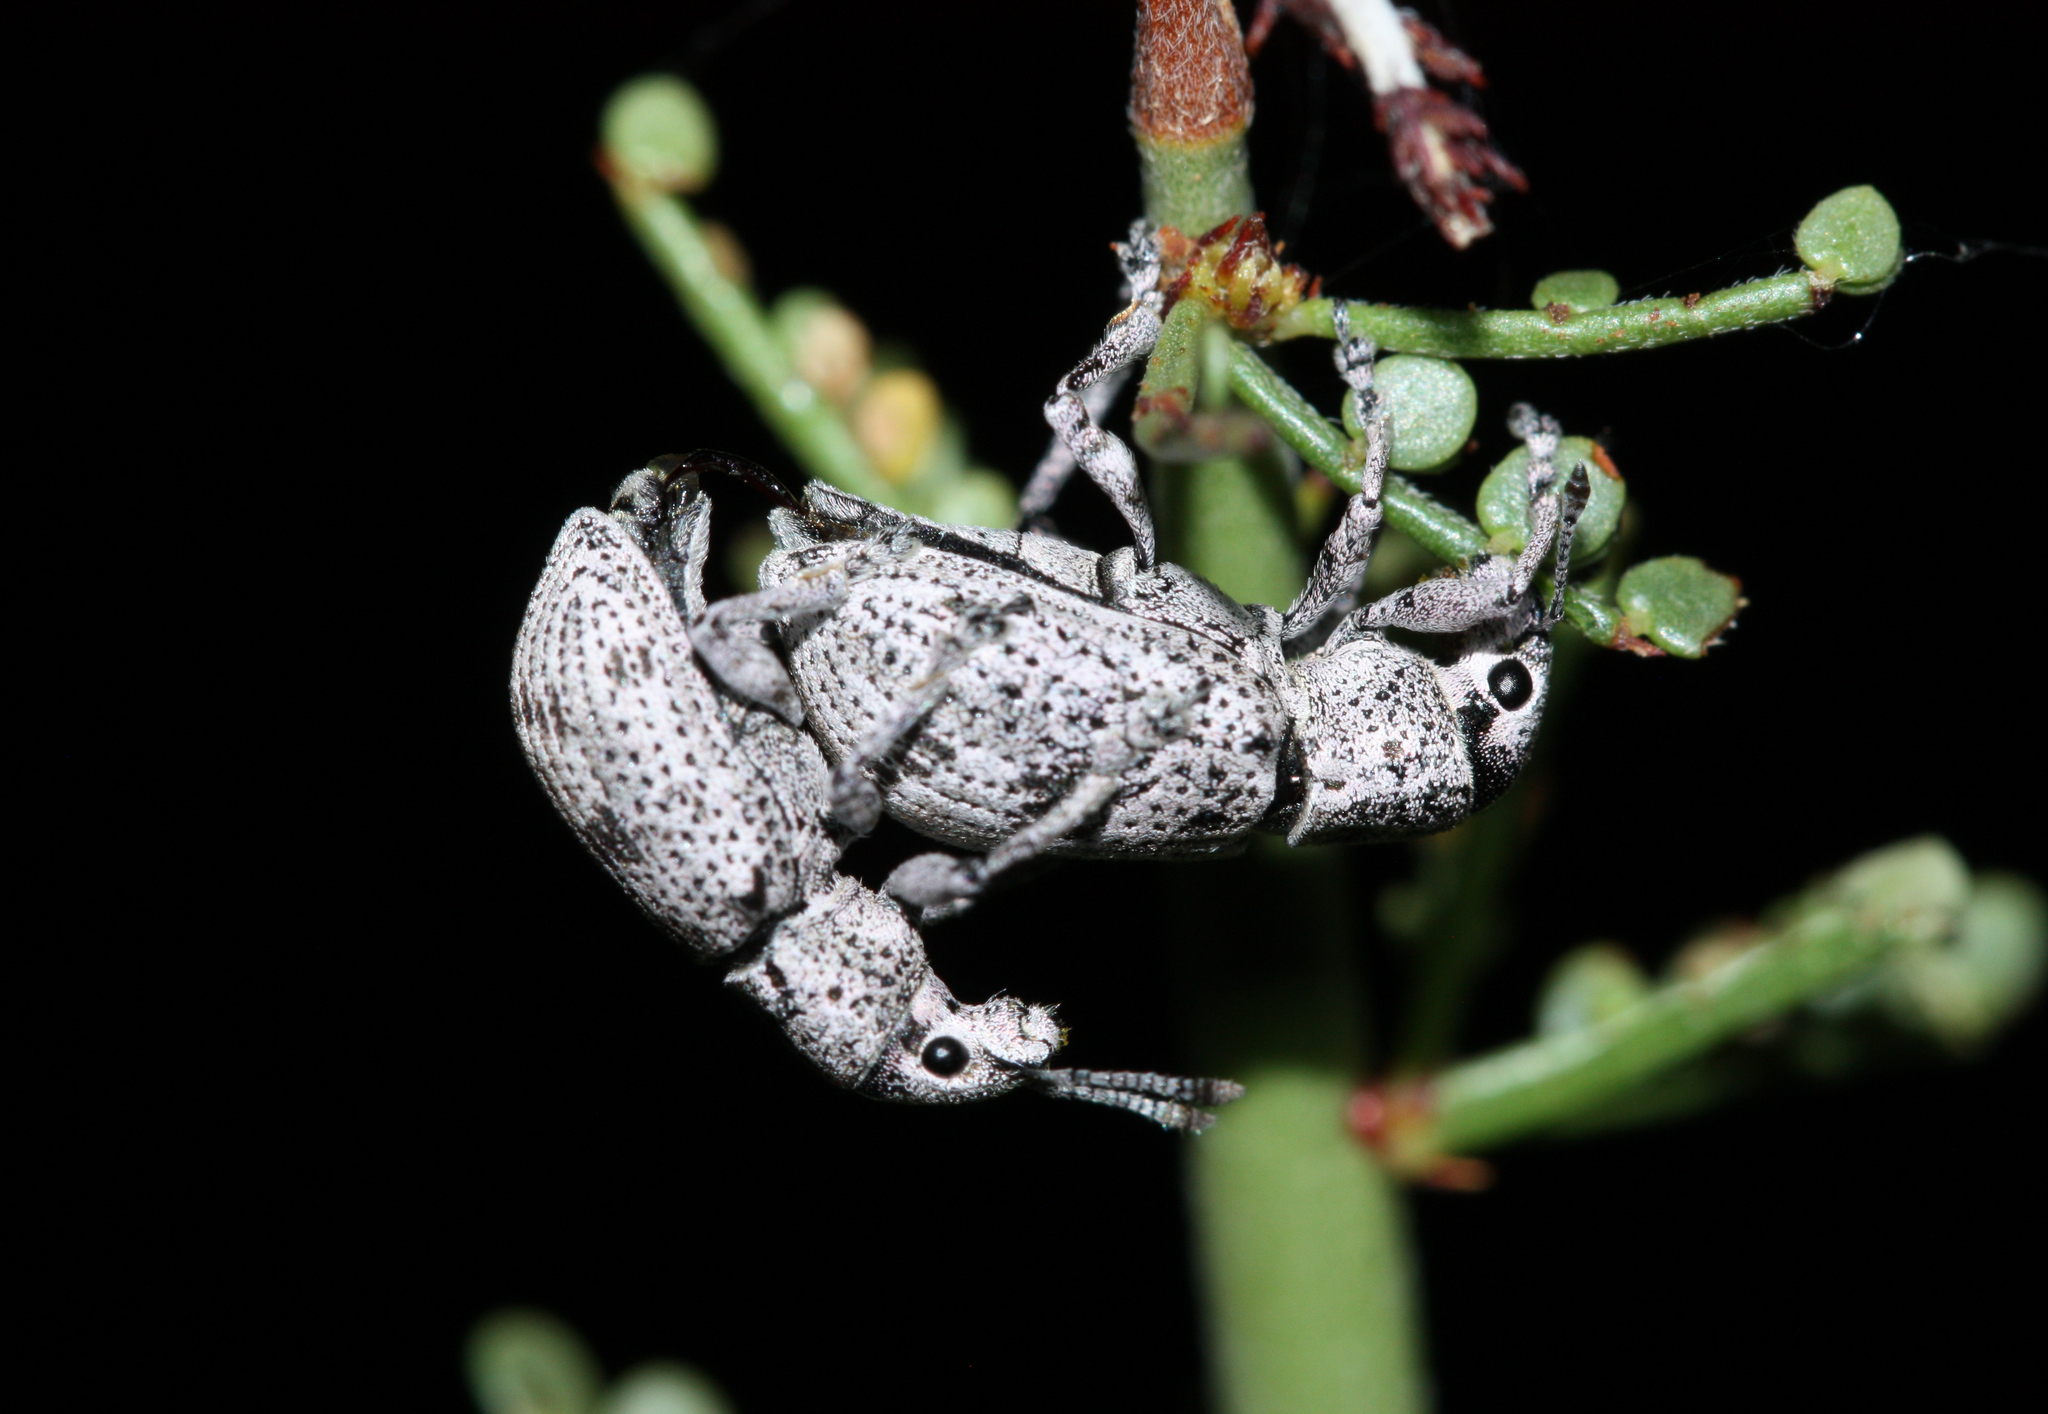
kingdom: Animalia
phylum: Arthropoda
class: Insecta
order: Coleoptera
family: Curculionidae
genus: Ericydeus
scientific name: Ericydeus lautus
